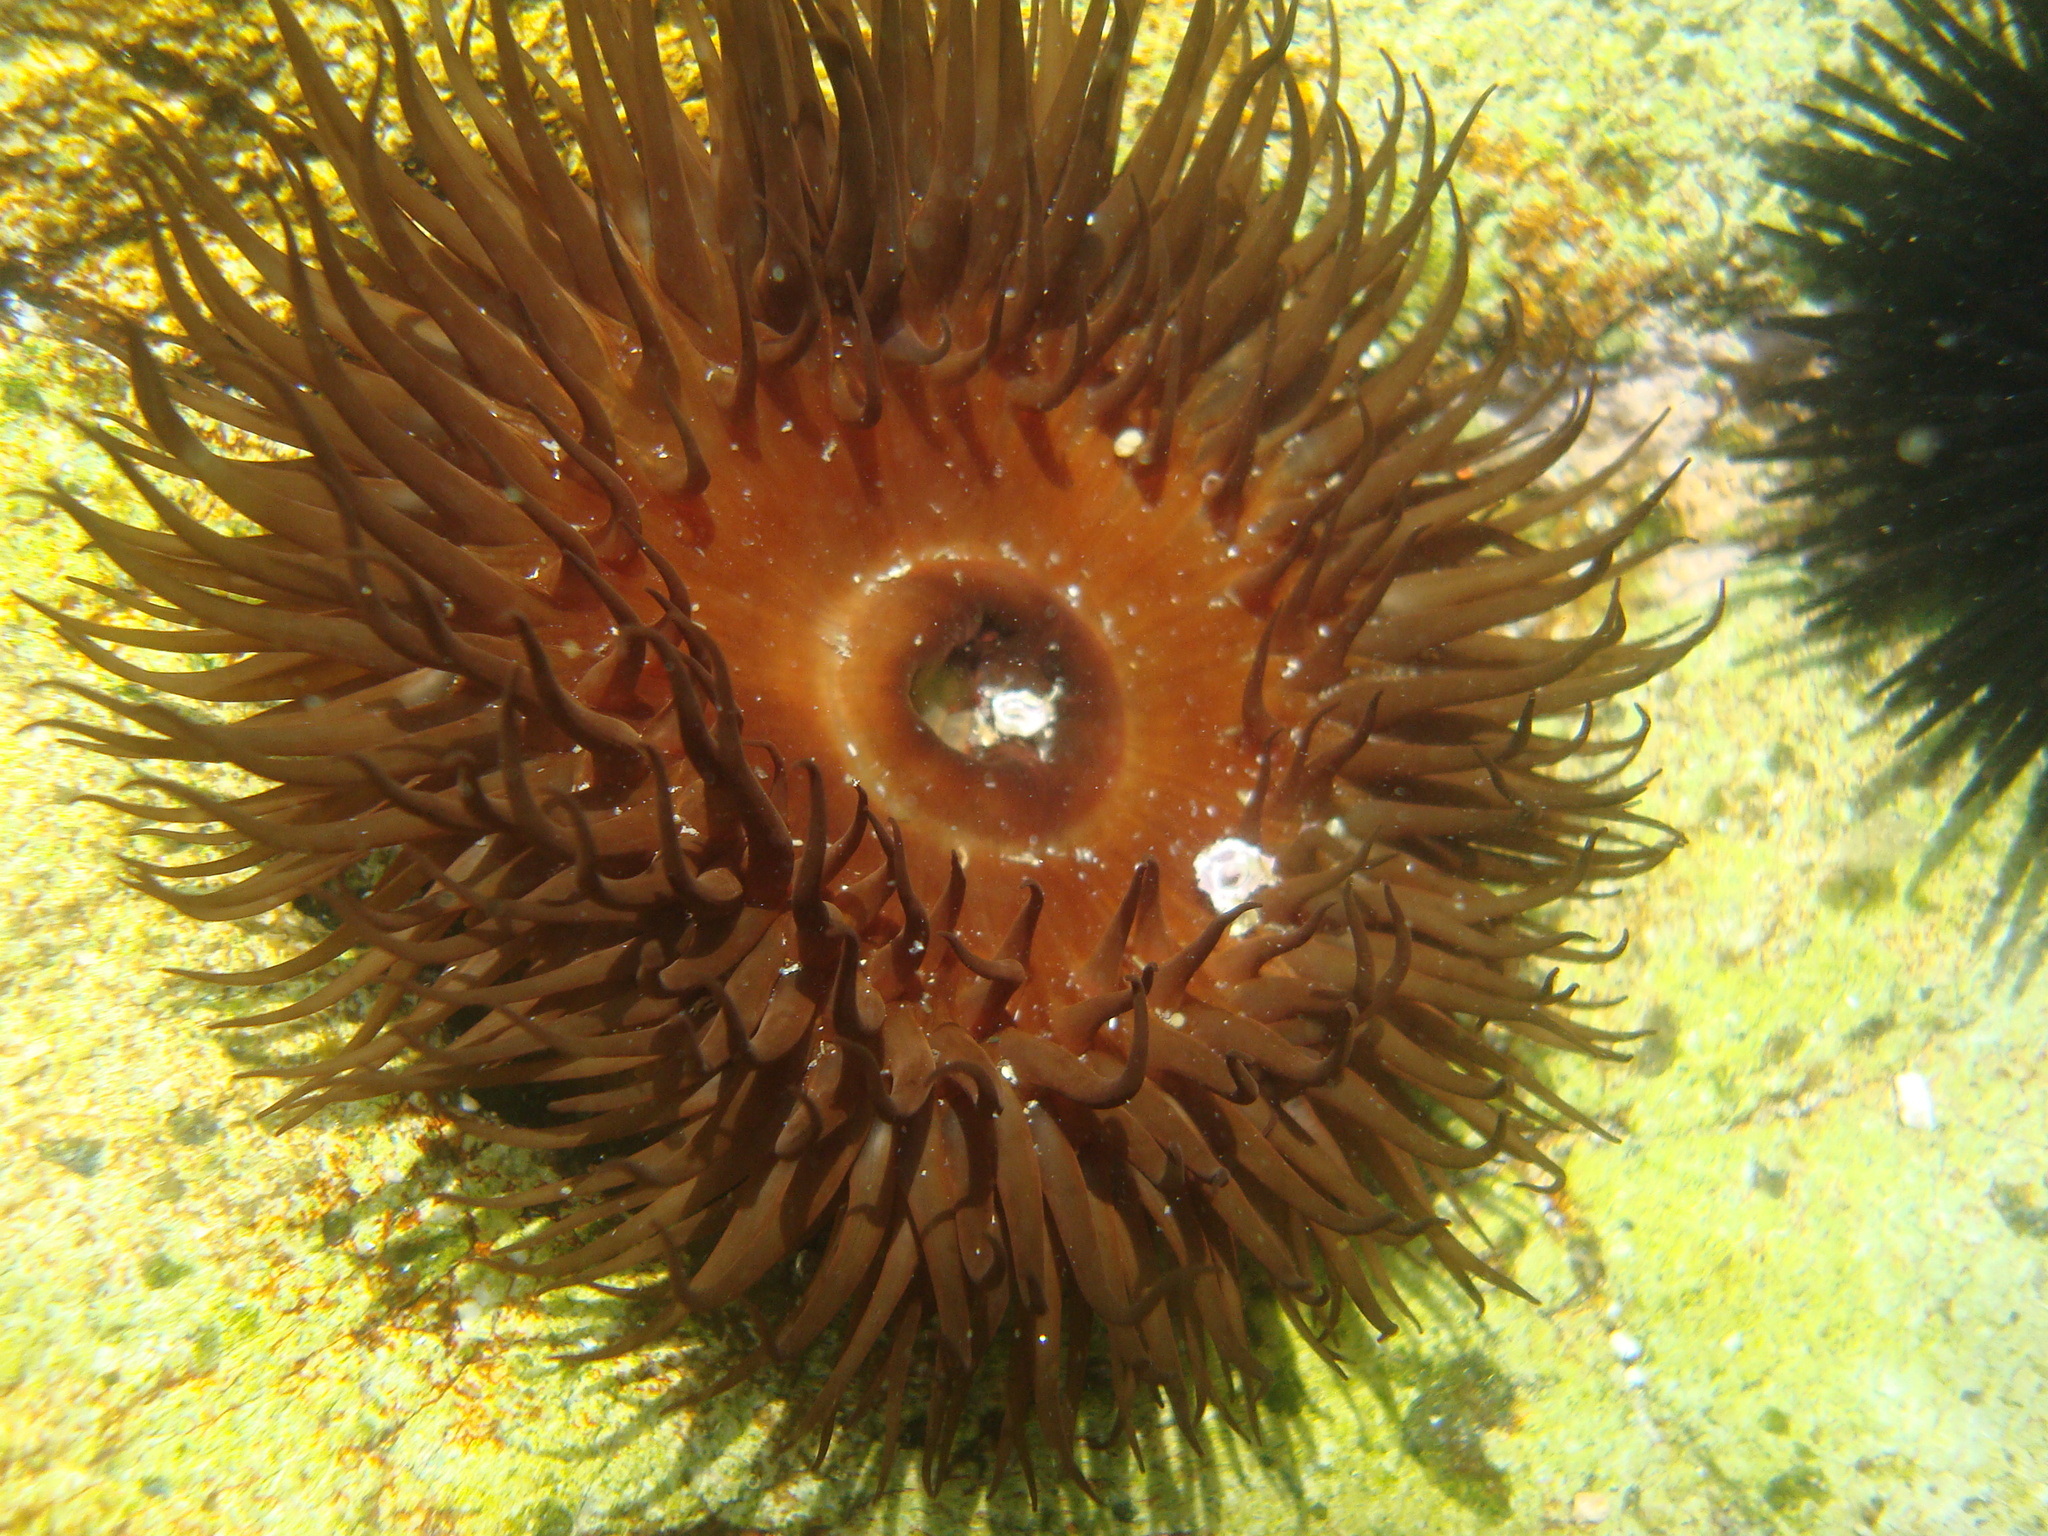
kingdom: Animalia
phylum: Cnidaria
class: Anthozoa
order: Actiniaria
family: Actiniidae
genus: Phymactis
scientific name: Phymactis papillosa
